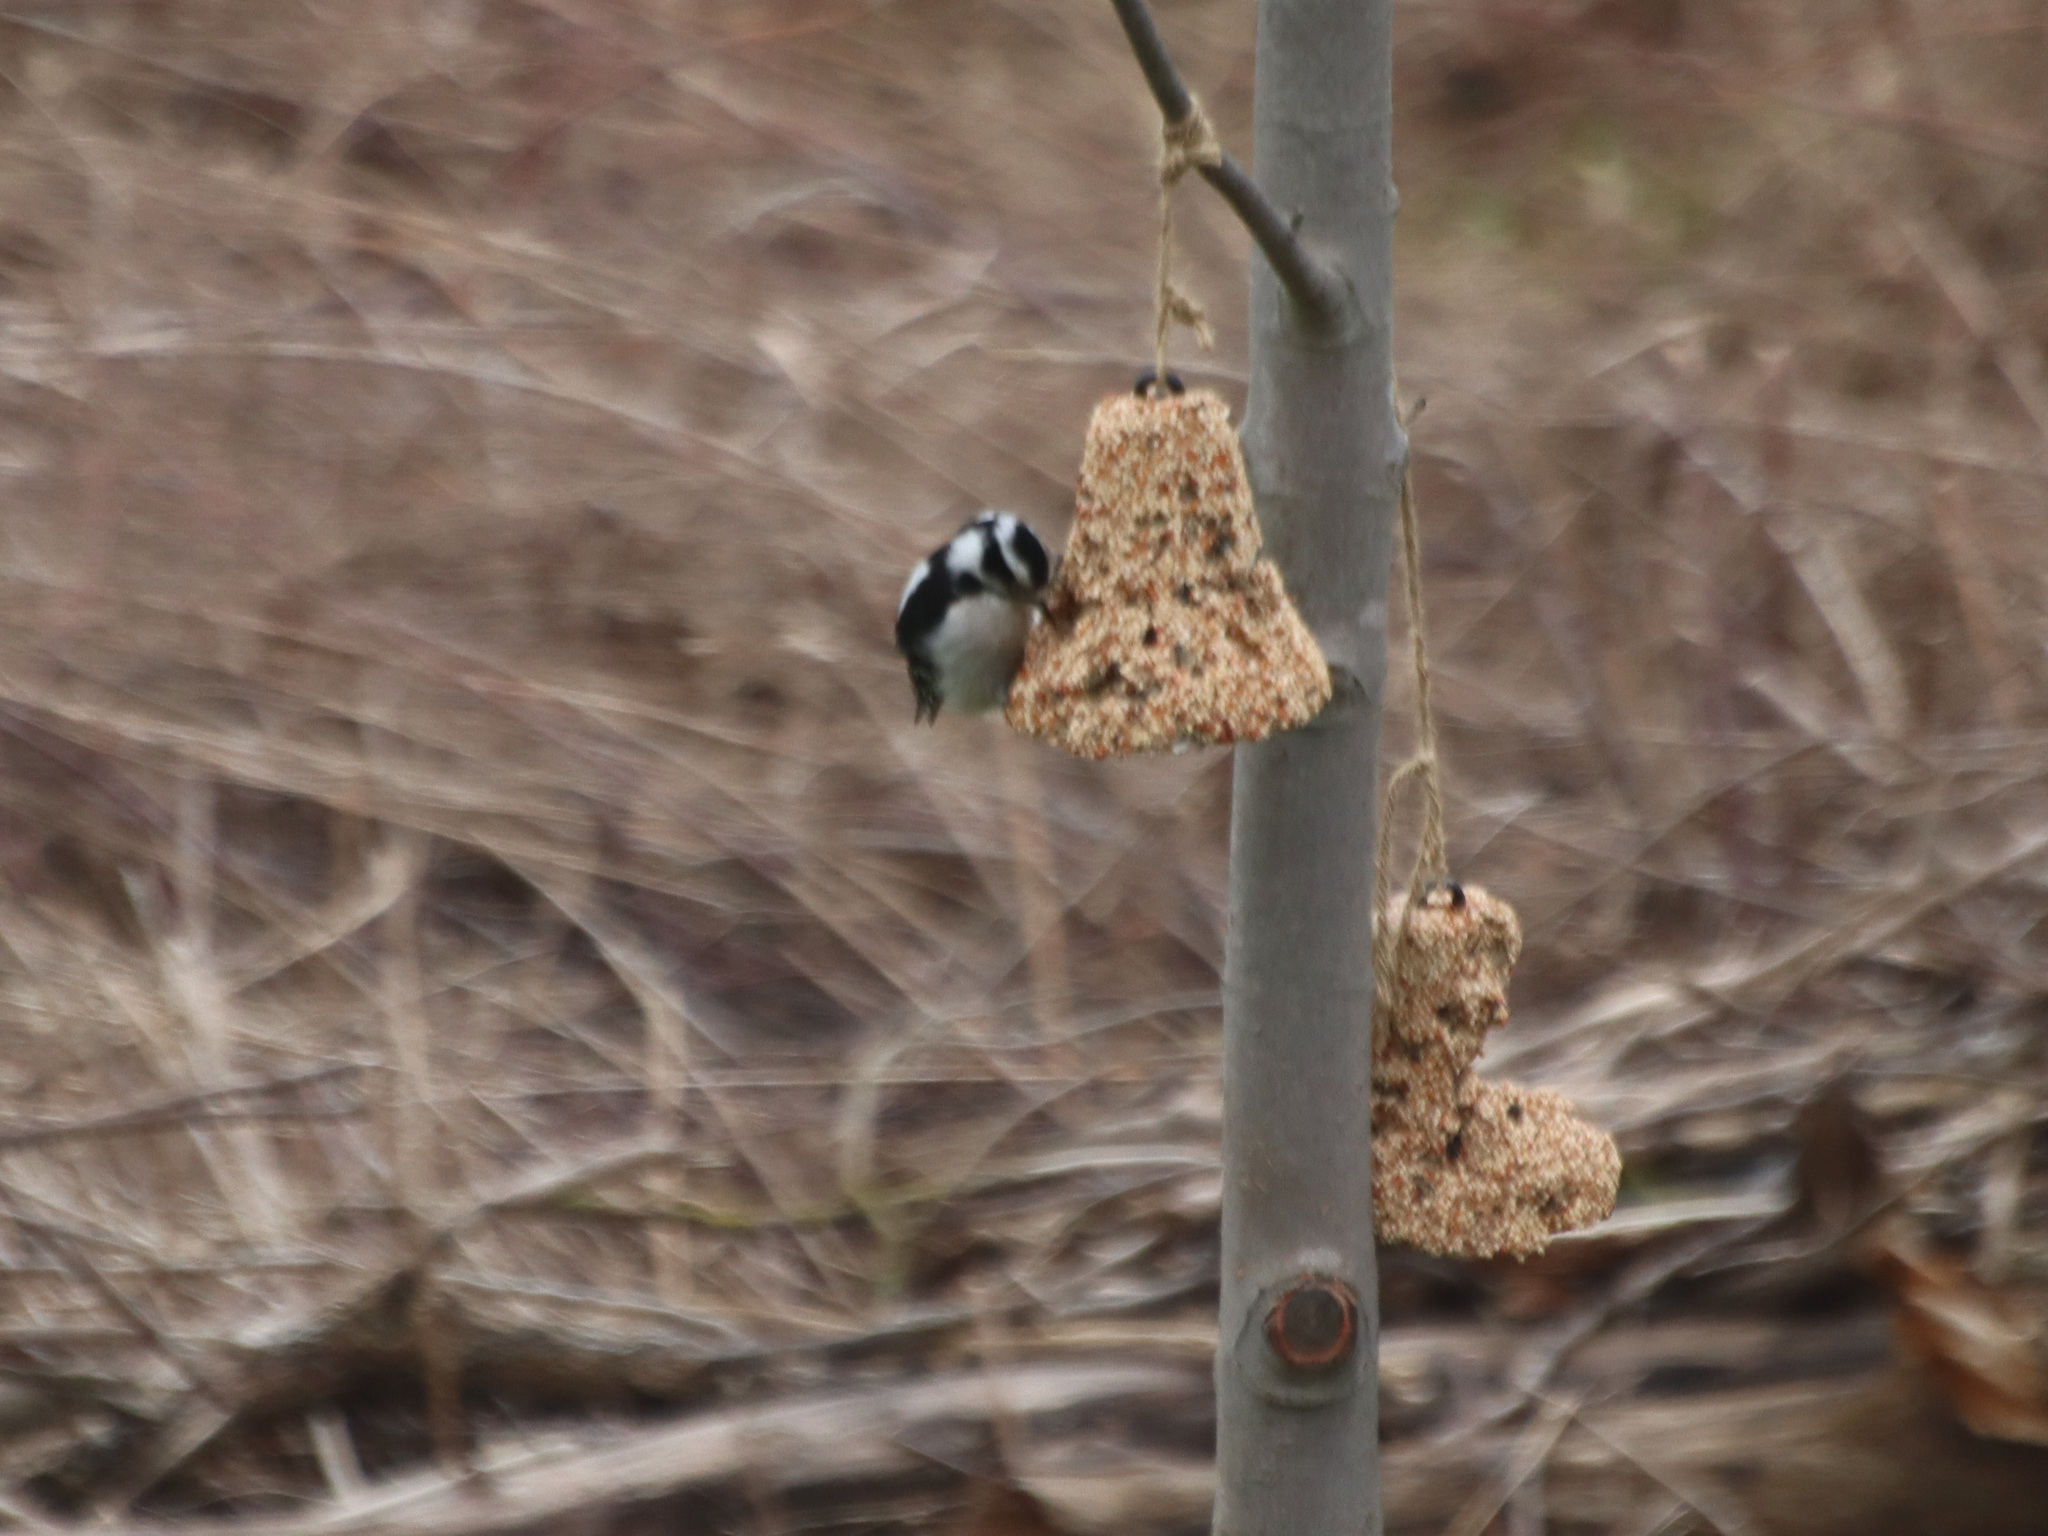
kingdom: Animalia
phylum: Chordata
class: Aves
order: Piciformes
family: Picidae
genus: Dryobates
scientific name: Dryobates pubescens
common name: Downy woodpecker
